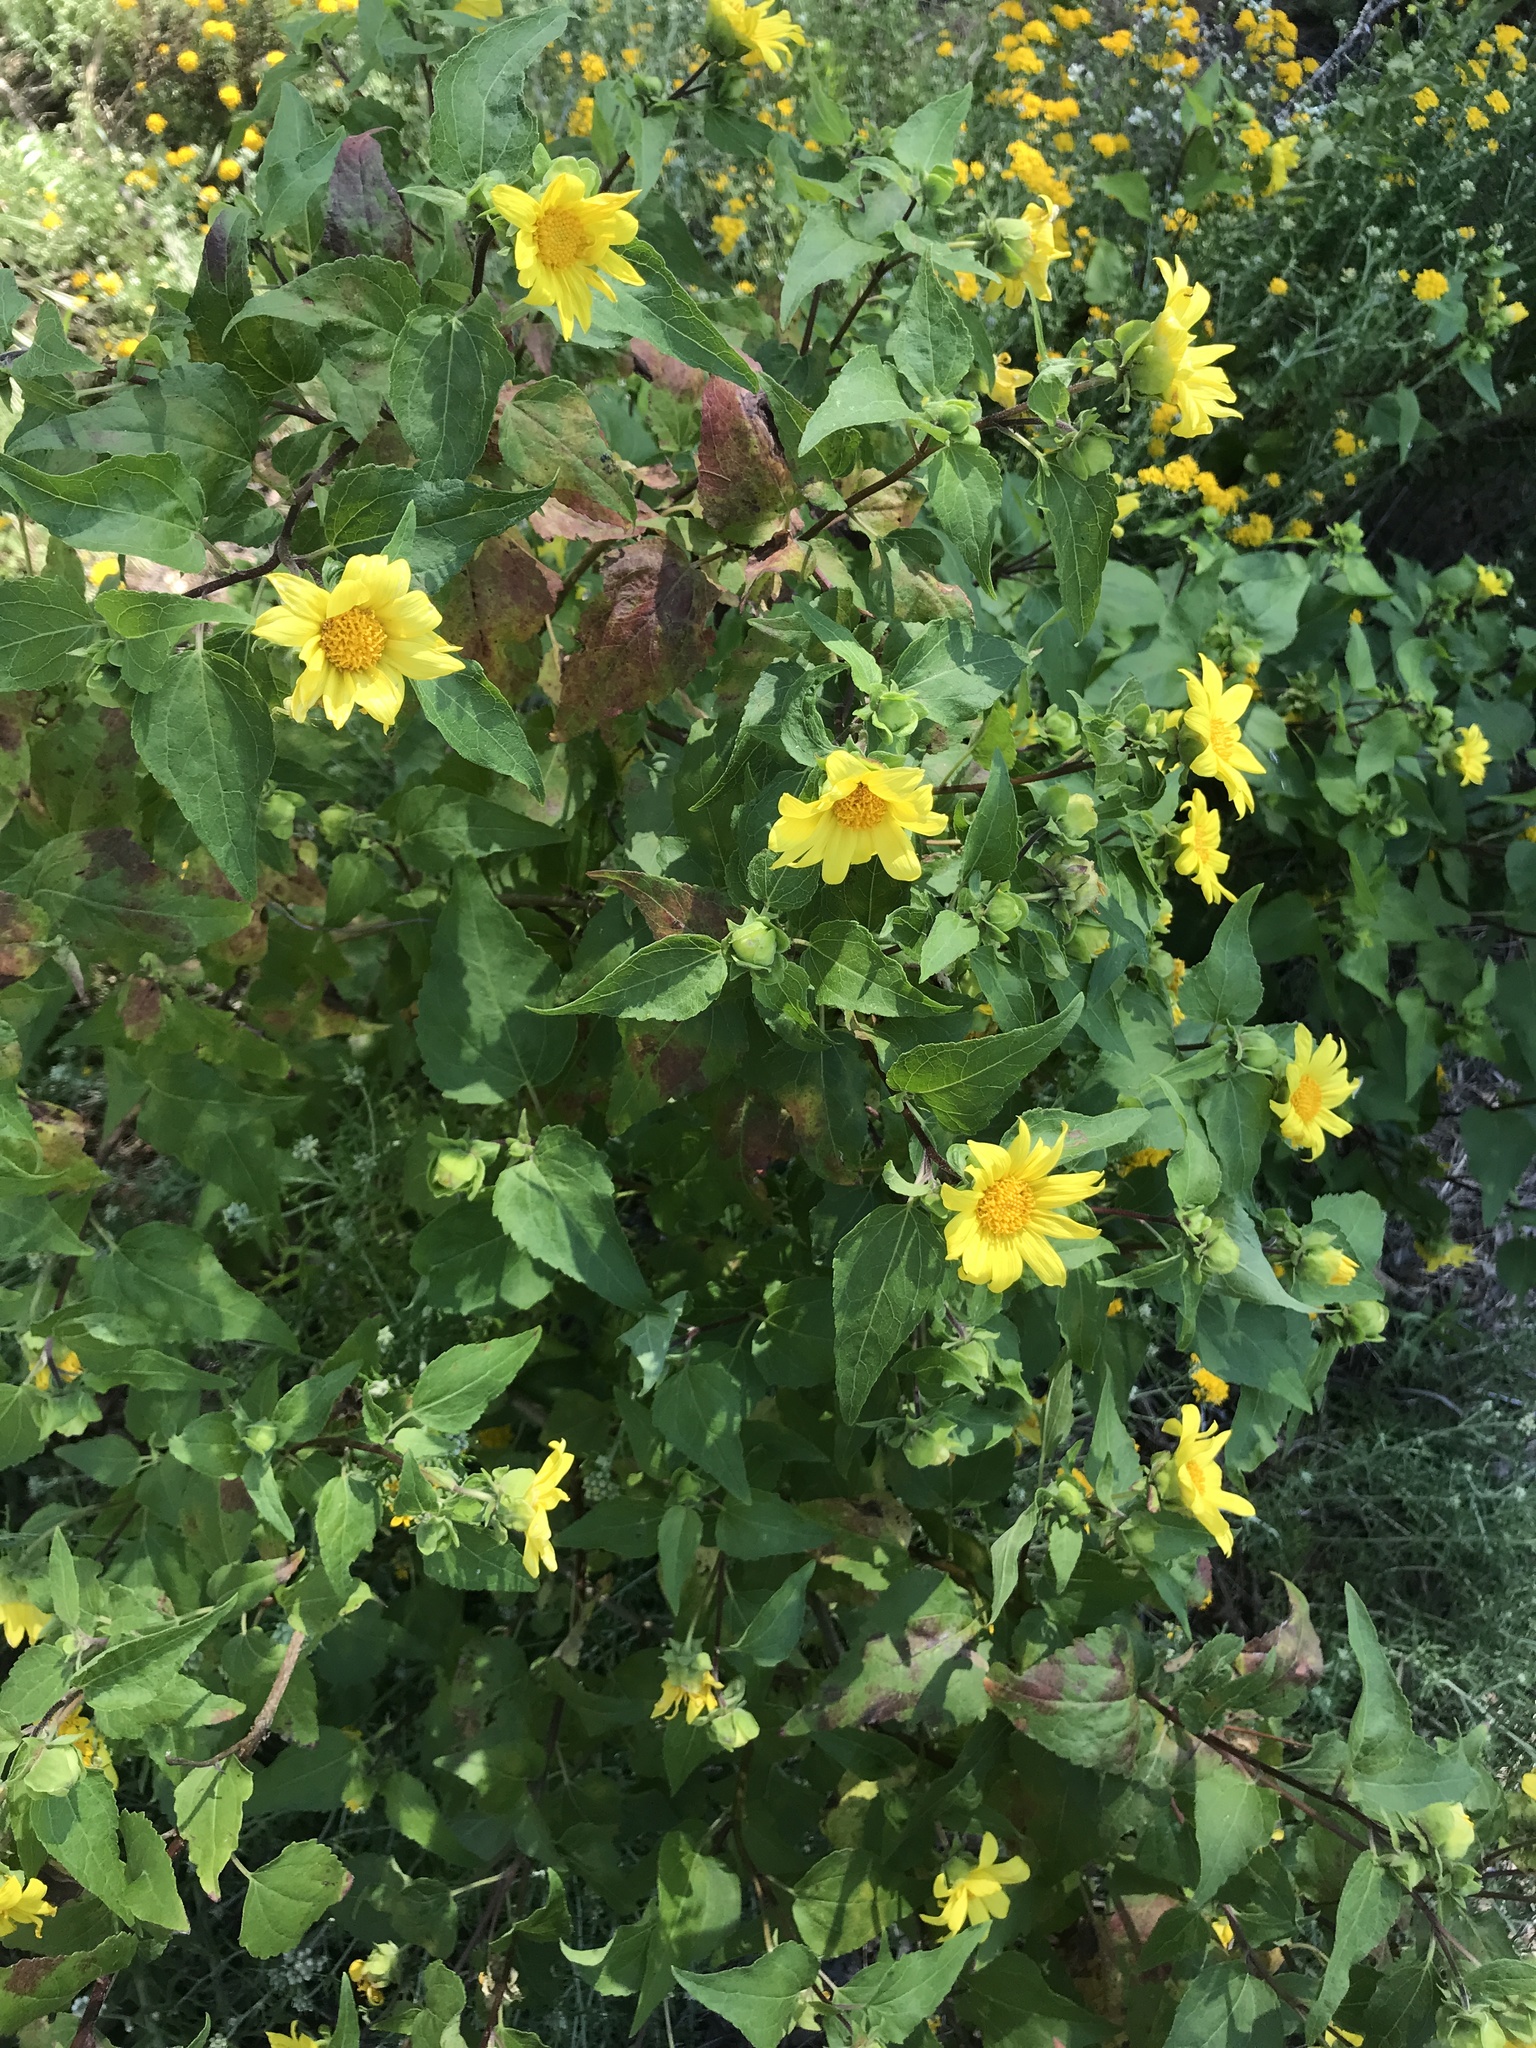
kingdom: Plantae
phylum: Tracheophyta
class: Magnoliopsida
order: Asterales
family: Asteraceae
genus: Venegasia
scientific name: Venegasia carpesioides
